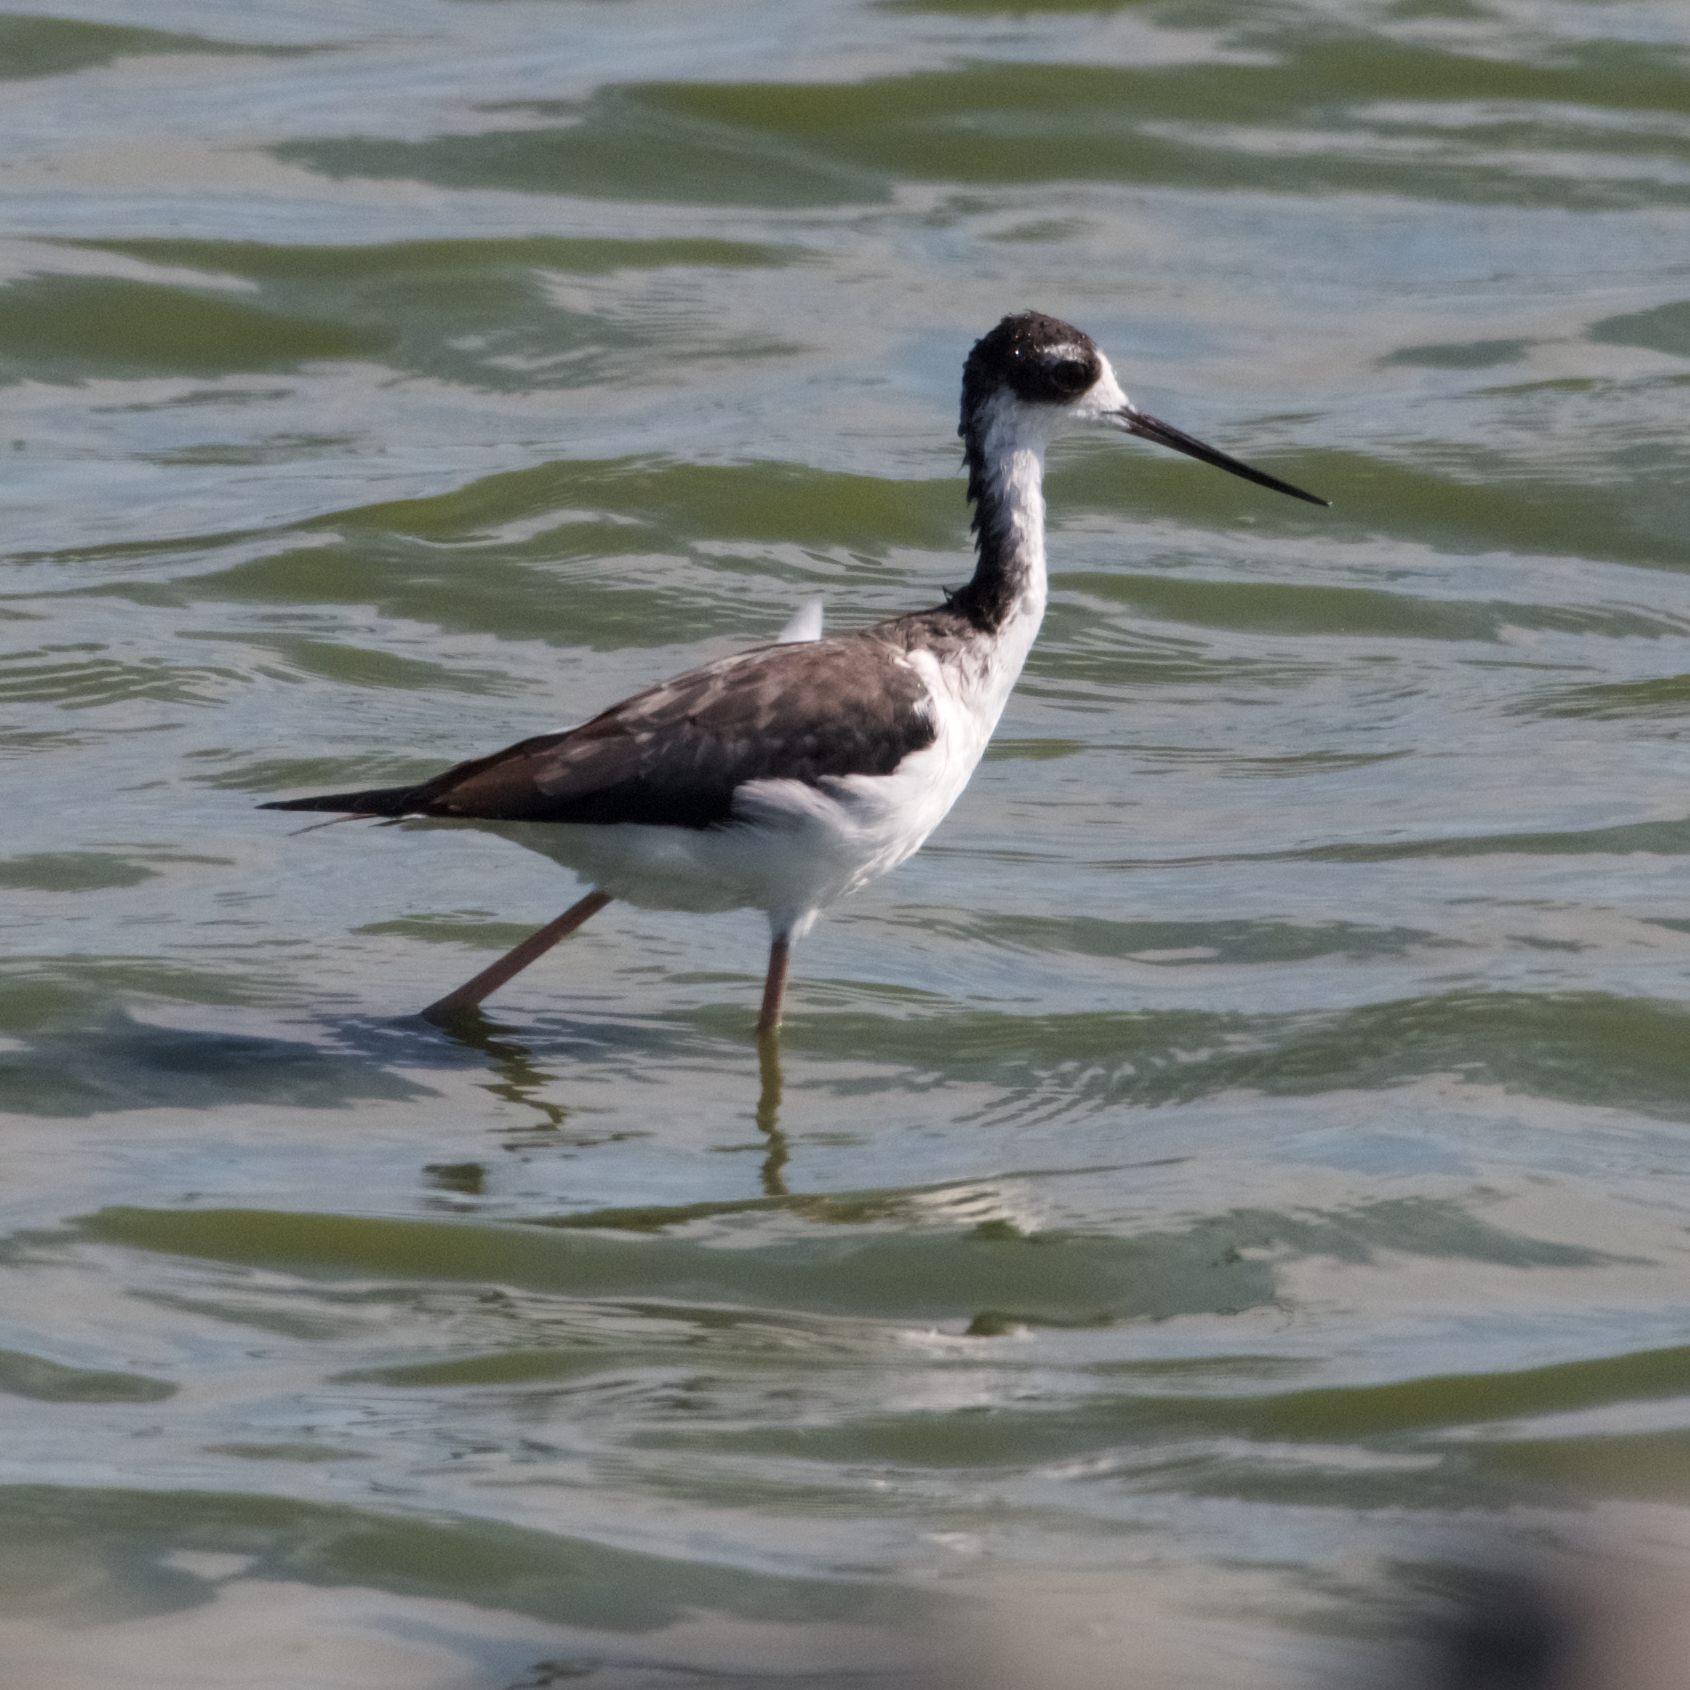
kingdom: Animalia
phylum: Chordata
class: Aves
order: Charadriiformes
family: Recurvirostridae
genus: Himantopus
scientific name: Himantopus mexicanus
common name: Black-necked stilt
